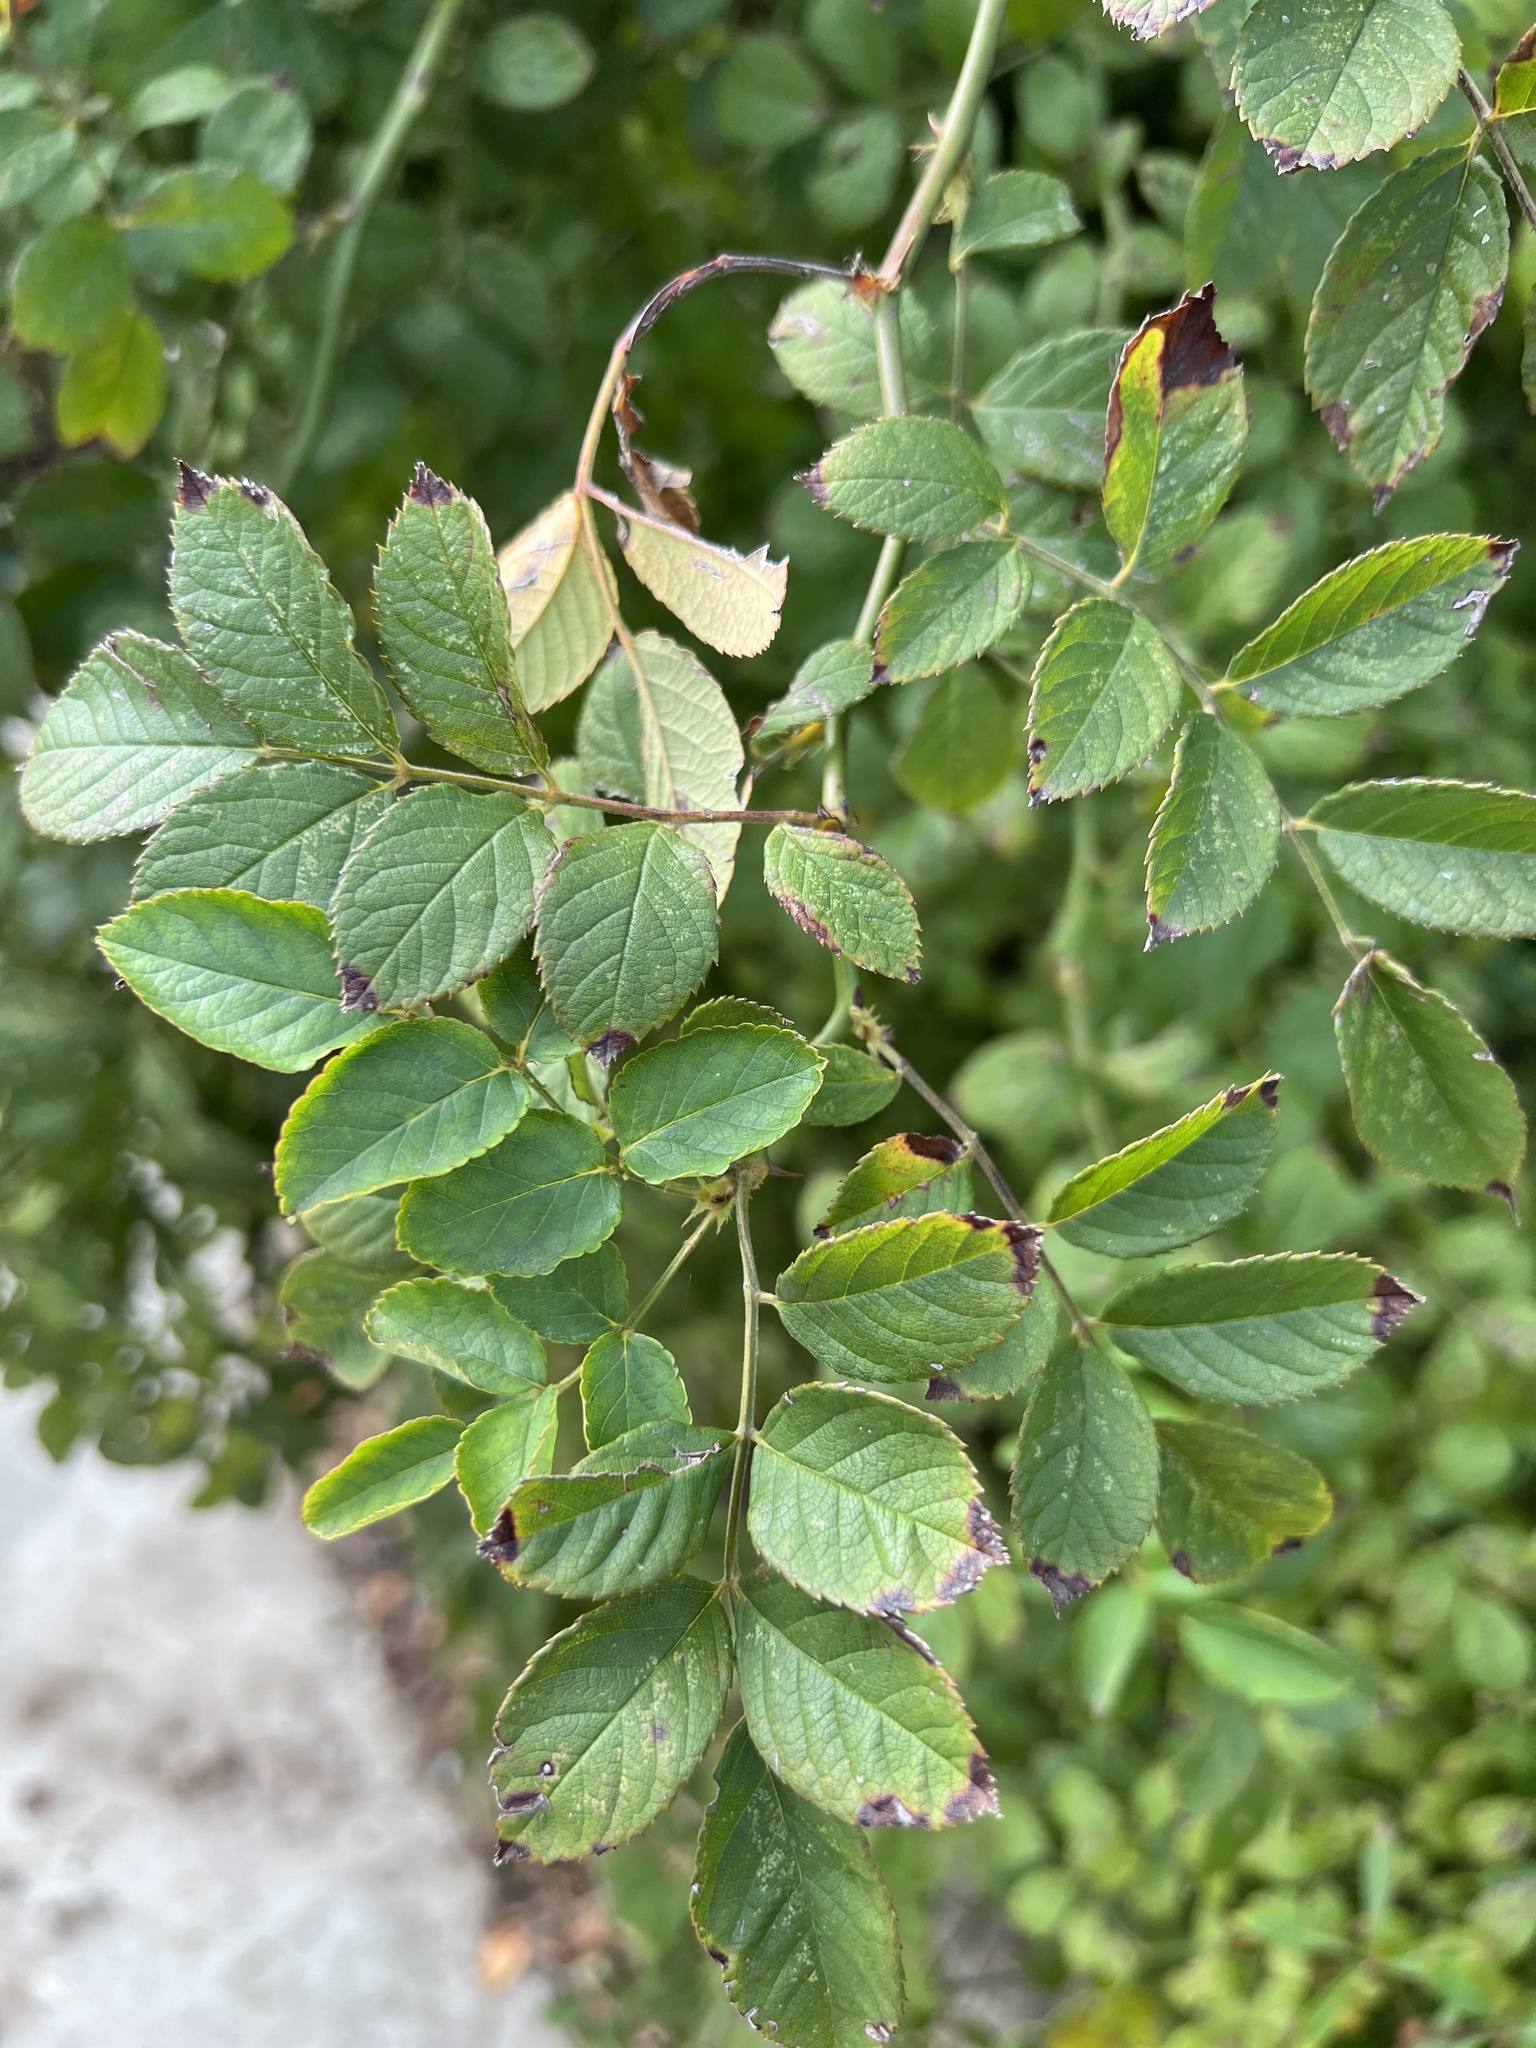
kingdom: Plantae
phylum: Tracheophyta
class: Magnoliopsida
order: Rosales
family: Rosaceae
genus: Rosa
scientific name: Rosa multiflora
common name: Multiflora rose
